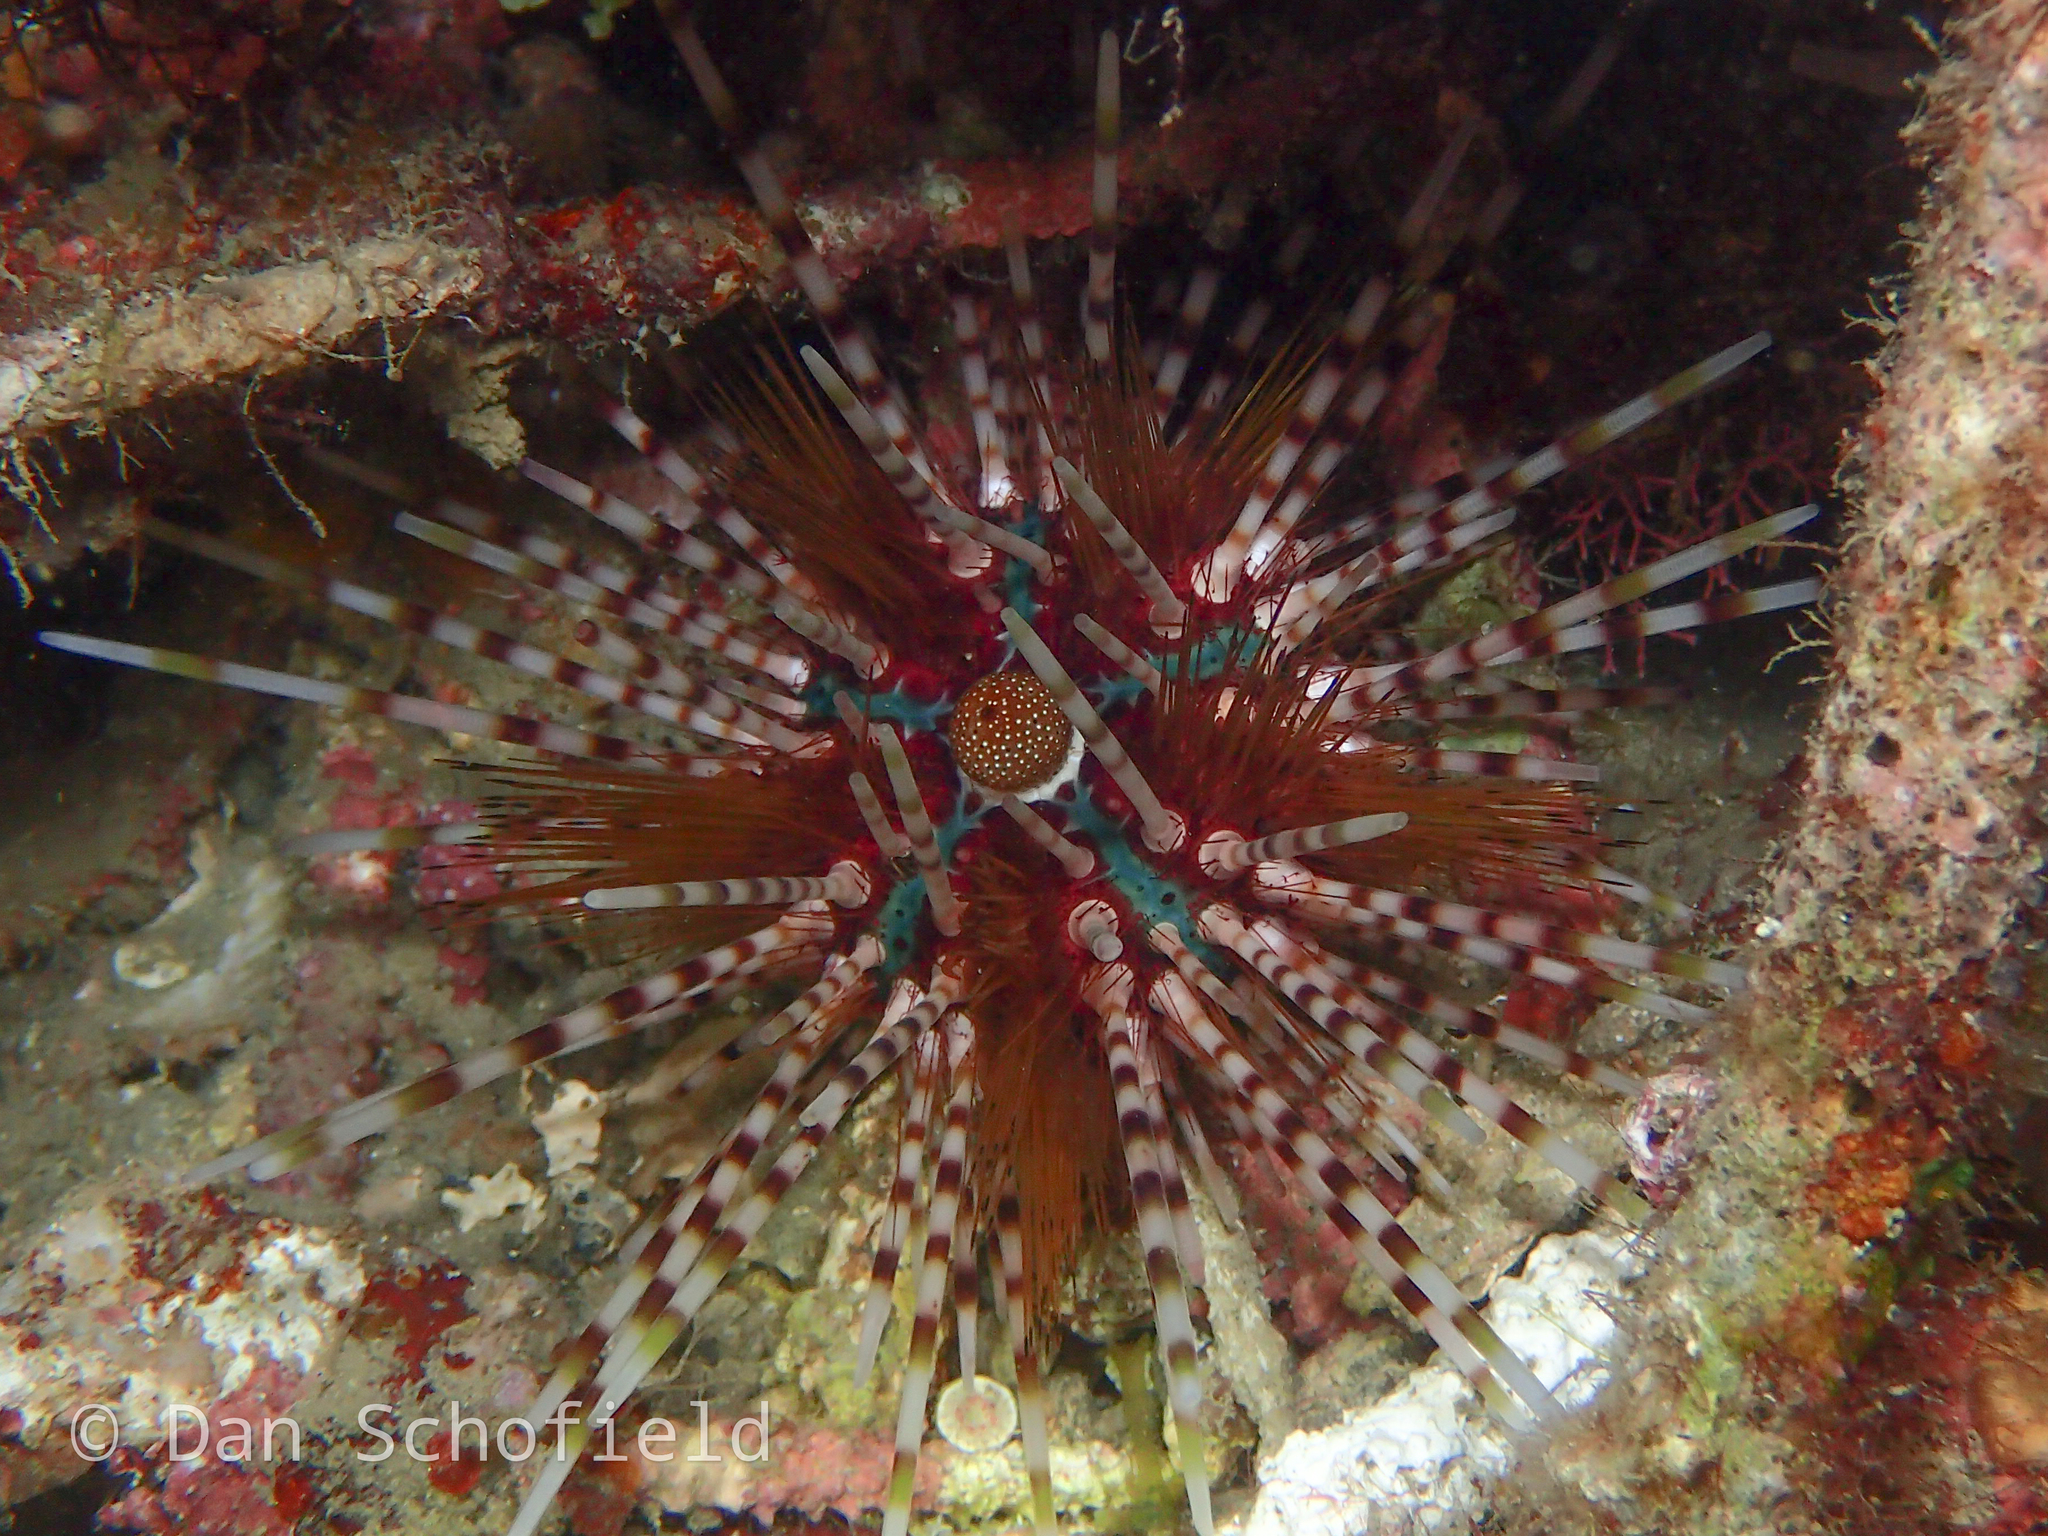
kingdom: Animalia
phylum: Echinodermata
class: Echinoidea
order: Diadematoida
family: Diadematidae
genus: Echinothrix
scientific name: Echinothrix calamaris
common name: Banded sea urchin
